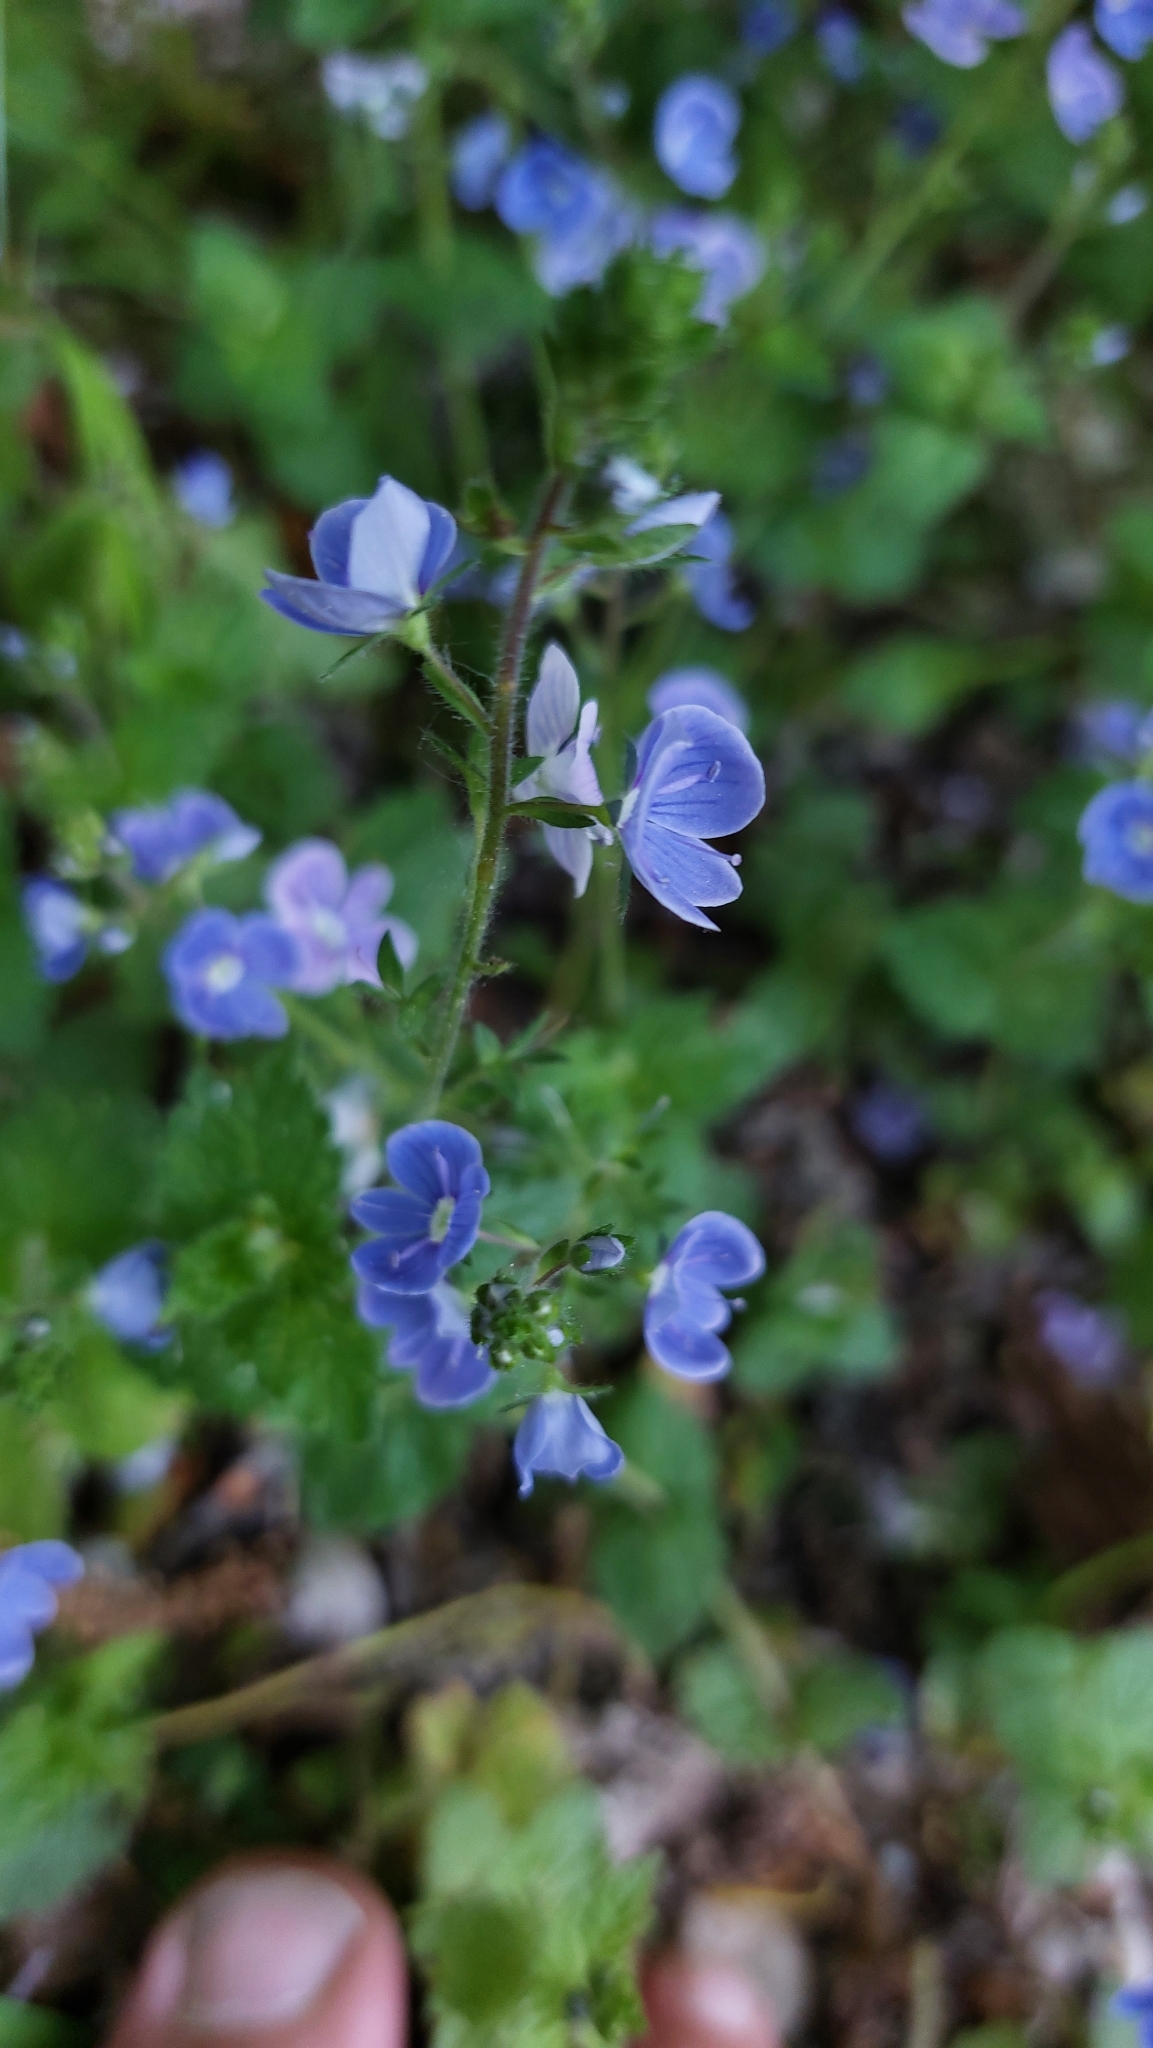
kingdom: Plantae
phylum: Tracheophyta
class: Magnoliopsida
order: Lamiales
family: Plantaginaceae
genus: Veronica
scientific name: Veronica chamaedrys
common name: Germander speedwell
